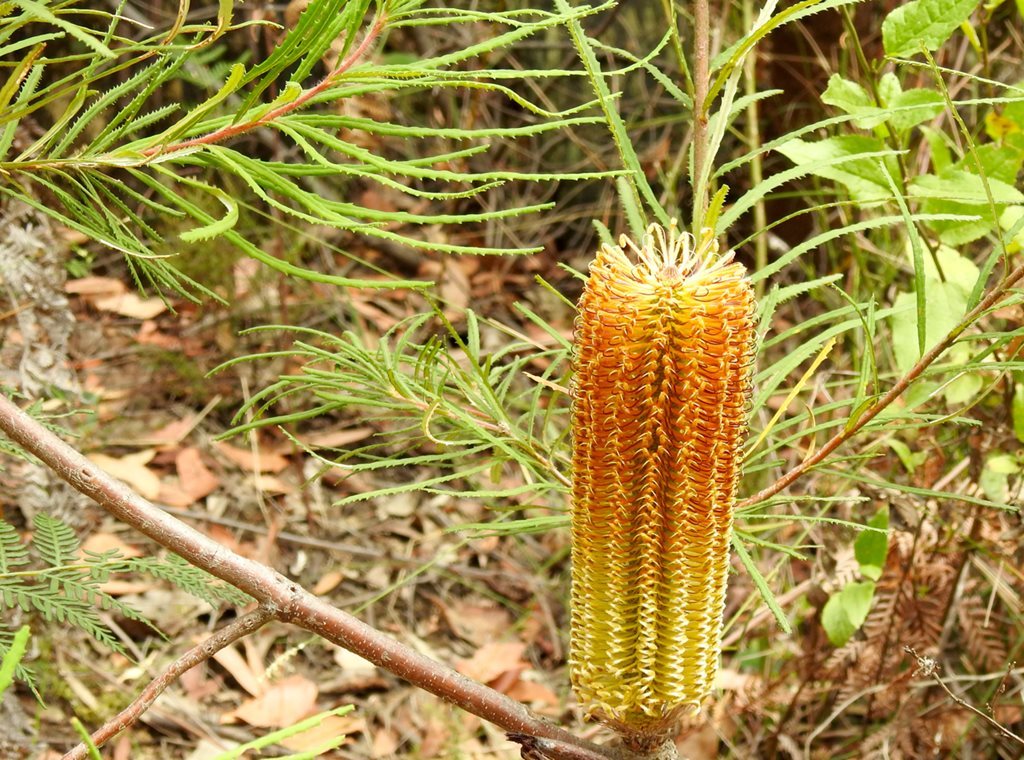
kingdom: Plantae
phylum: Tracheophyta
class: Magnoliopsida
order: Proteales
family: Proteaceae
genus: Banksia
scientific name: Banksia spinulosa
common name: Hairpin banksia
